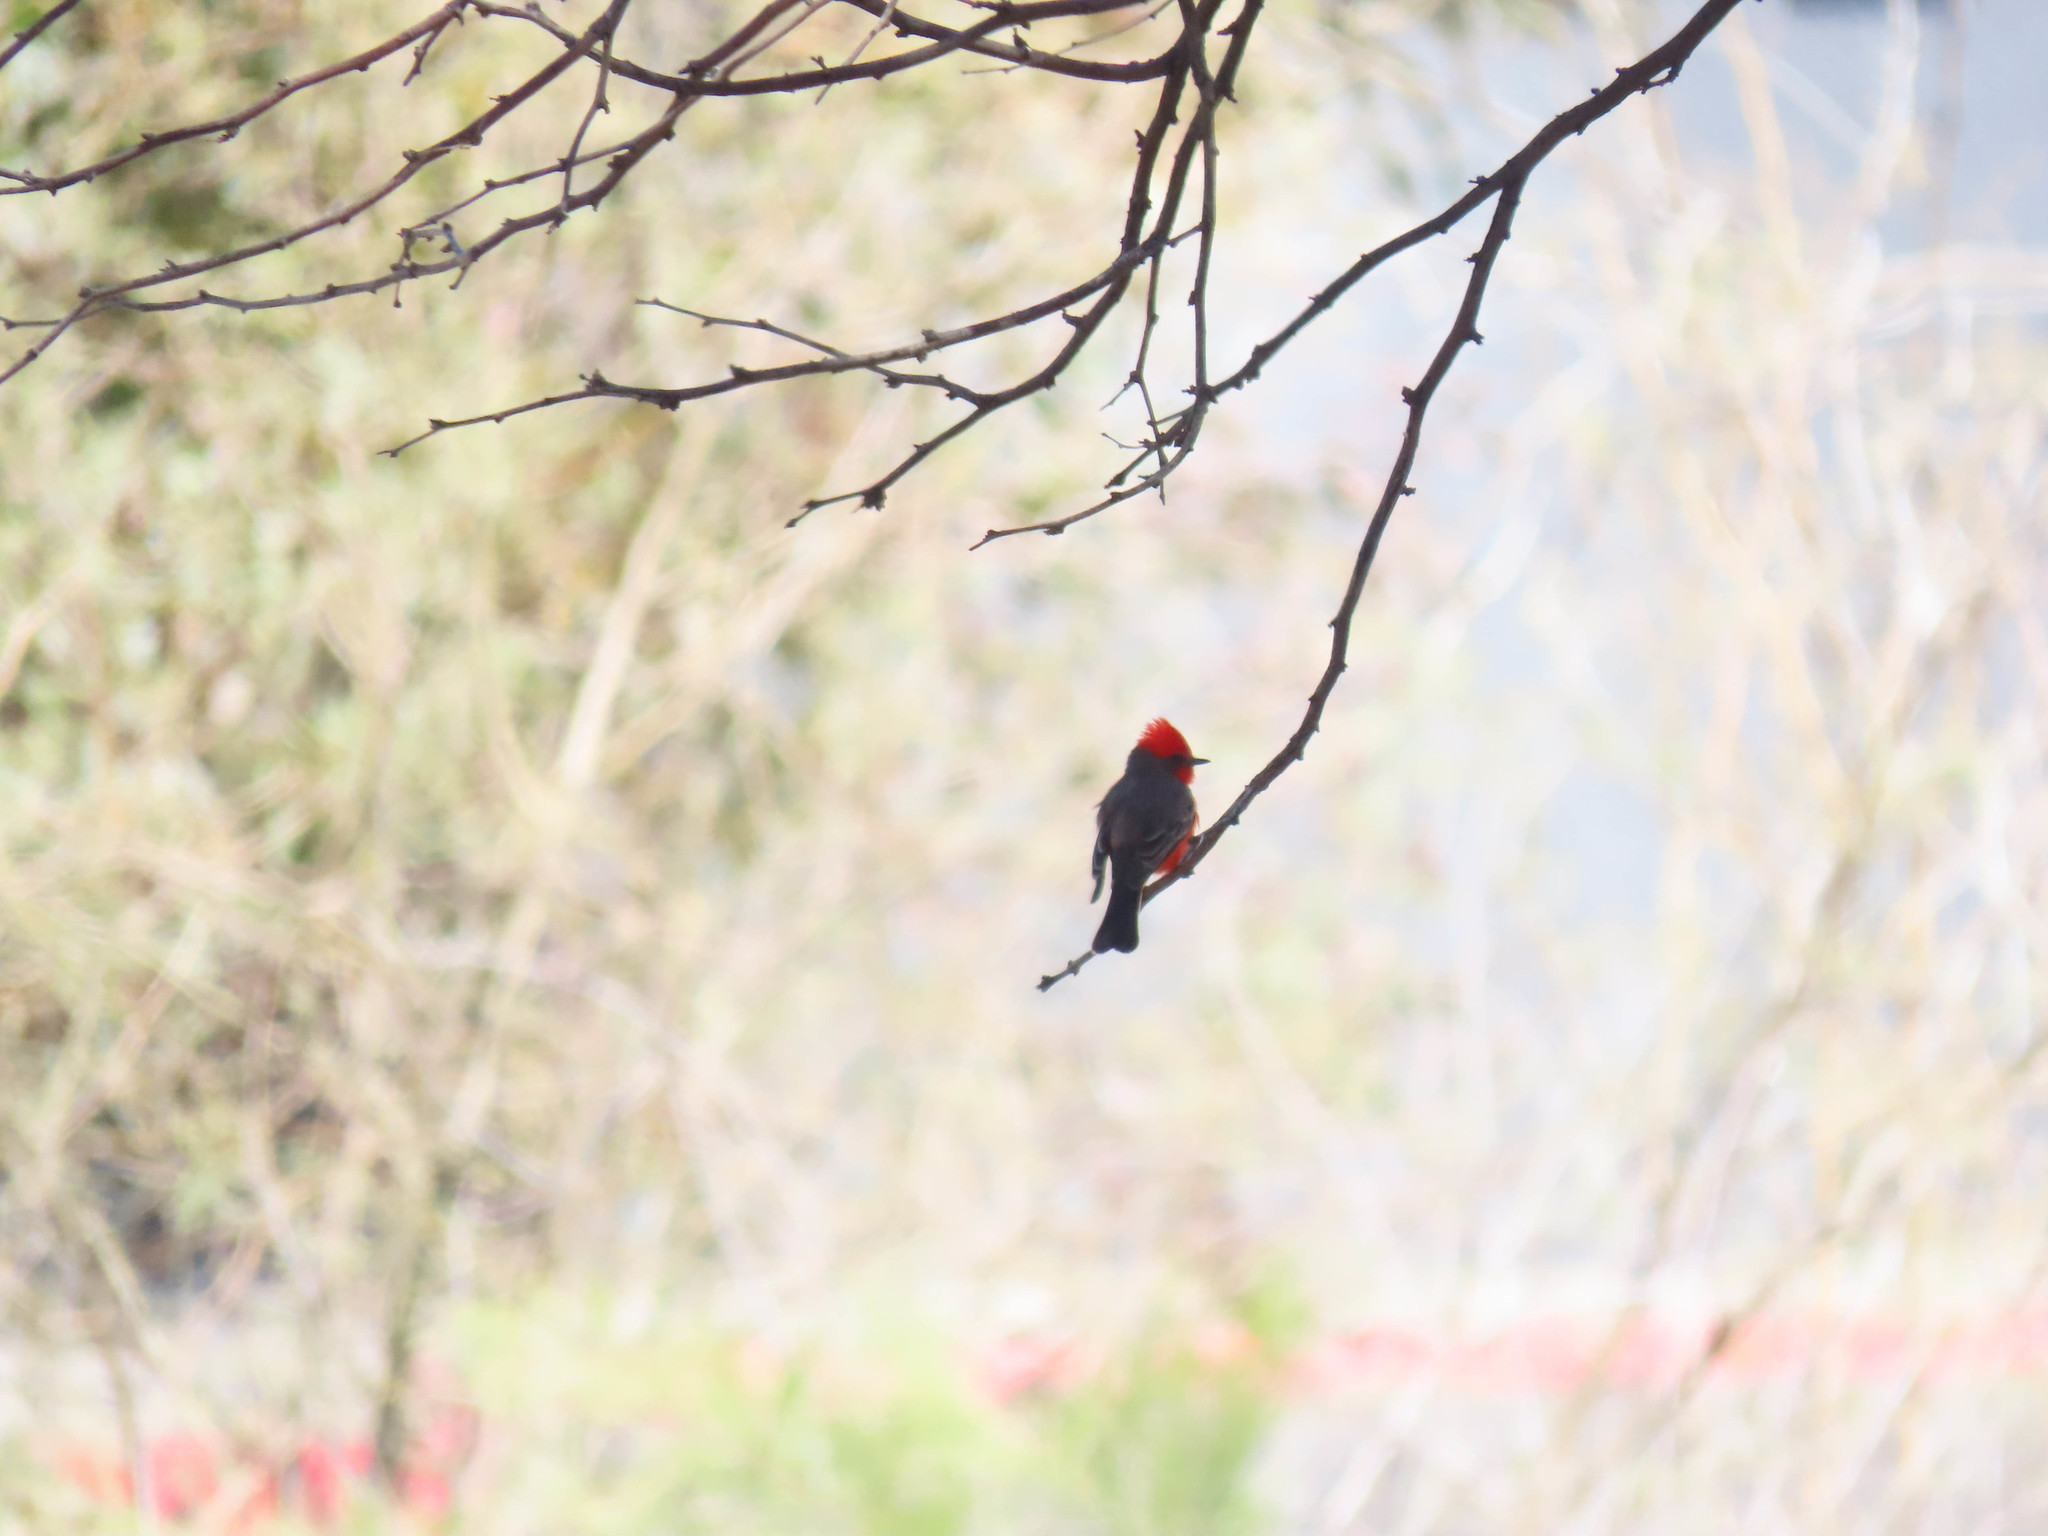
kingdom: Animalia
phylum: Chordata
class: Aves
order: Passeriformes
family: Tyrannidae
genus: Pyrocephalus
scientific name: Pyrocephalus rubinus
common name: Vermilion flycatcher
